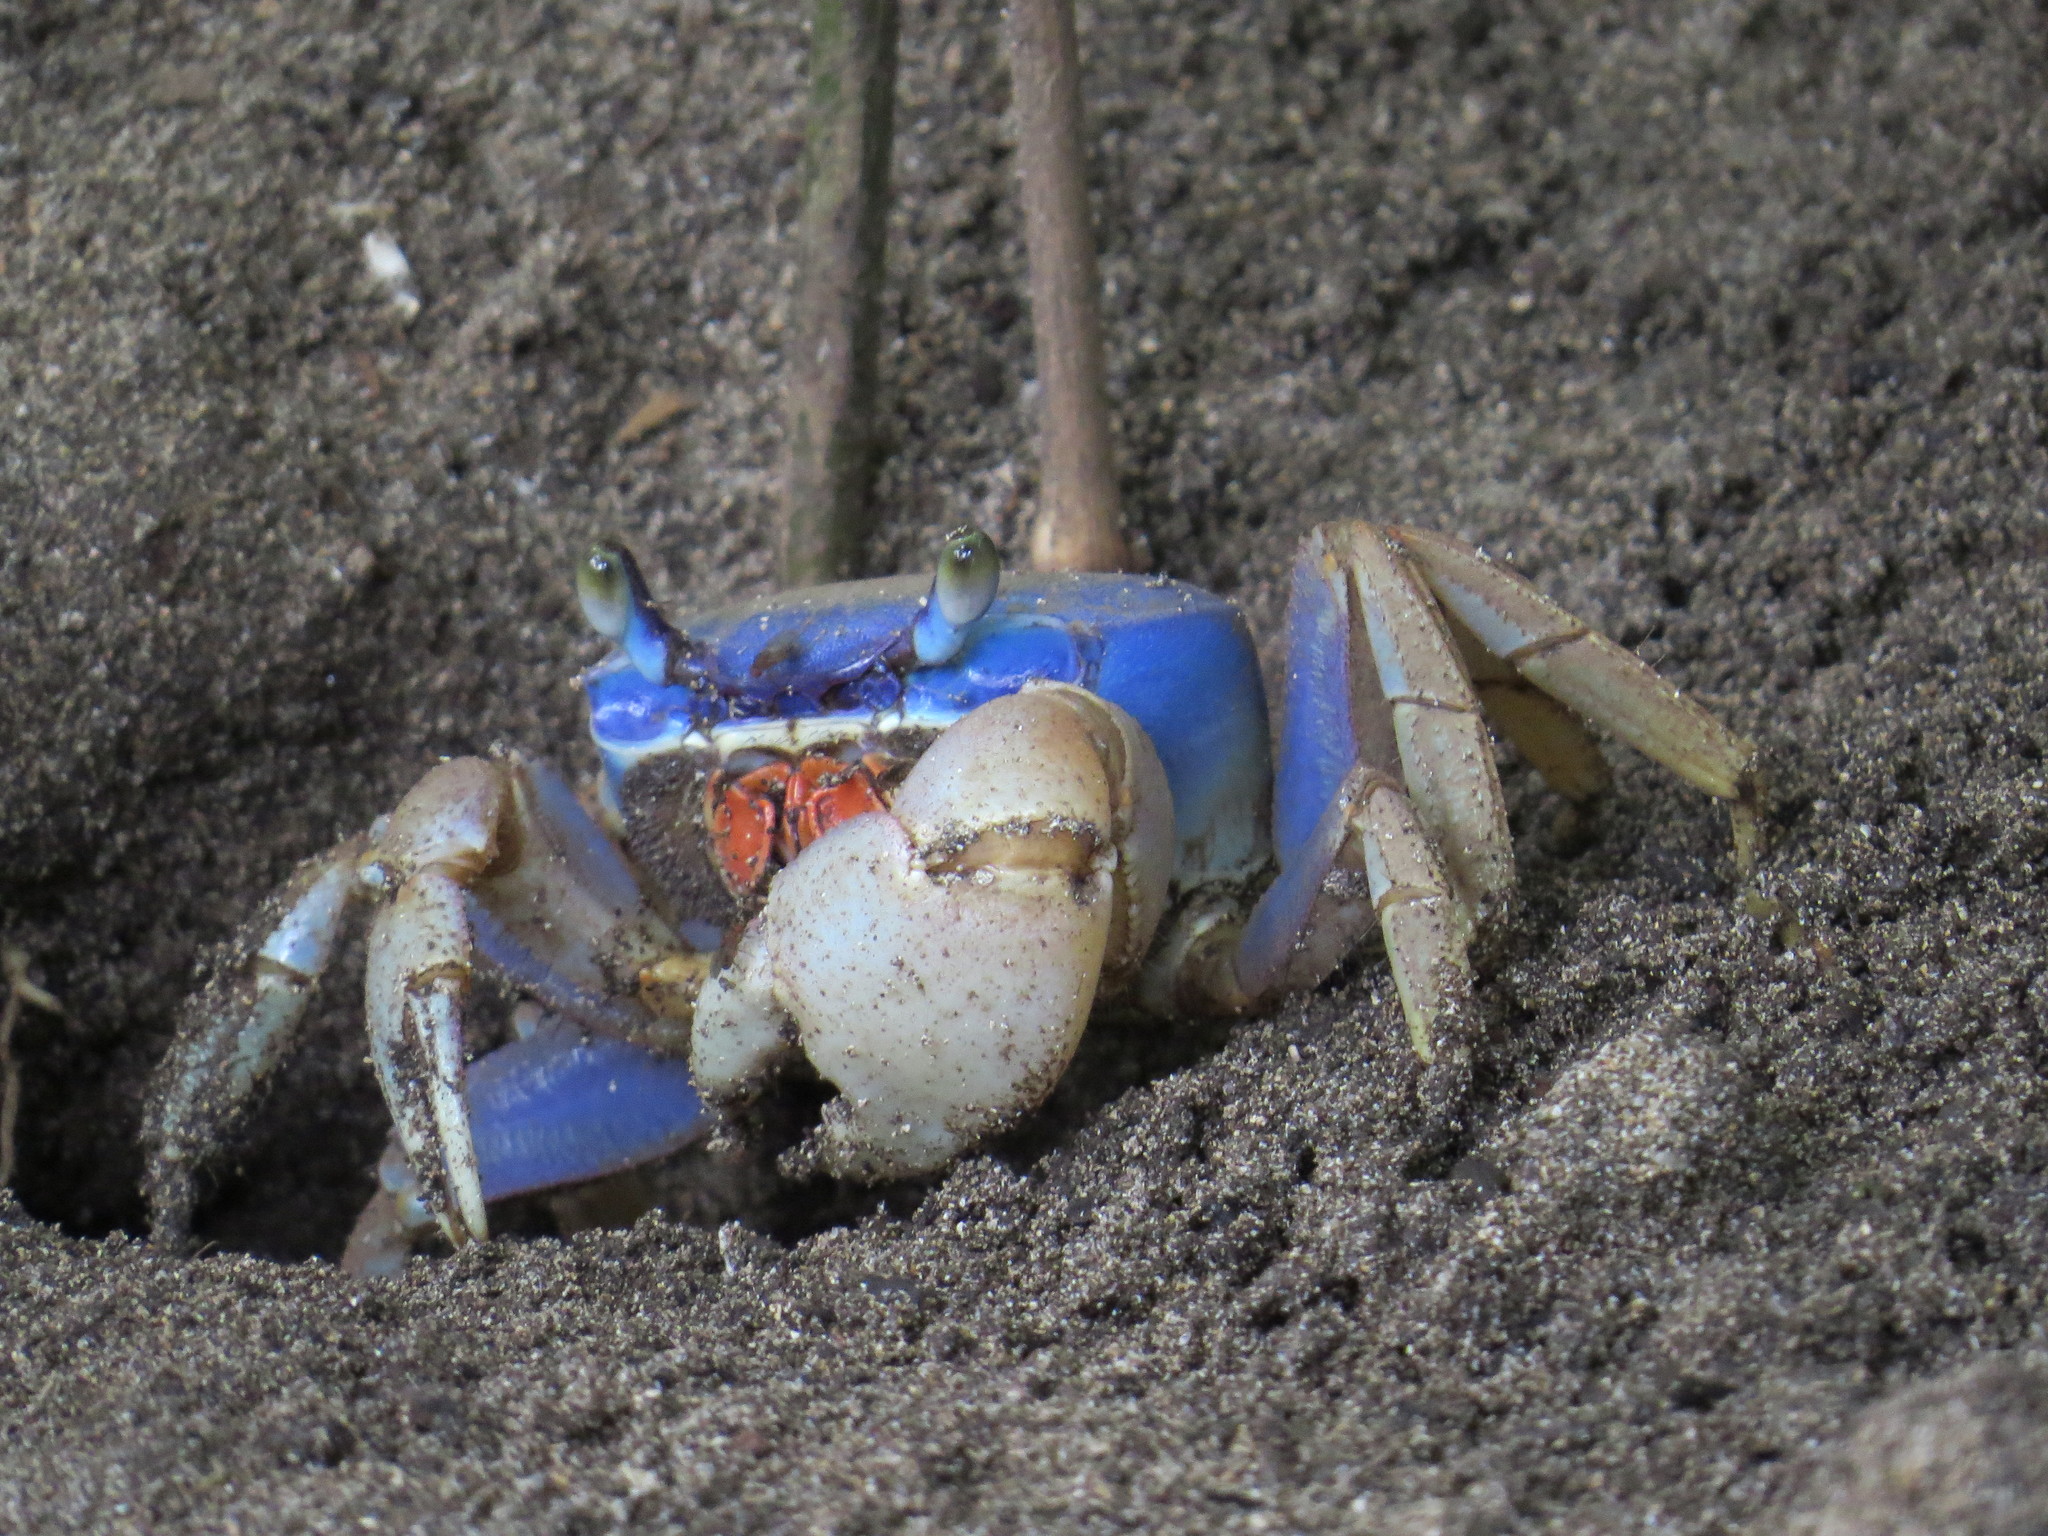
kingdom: Animalia
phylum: Arthropoda
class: Malacostraca
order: Decapoda
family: Gecarcinidae
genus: Cardisoma
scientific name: Cardisoma guanhumi
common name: Great land crab
